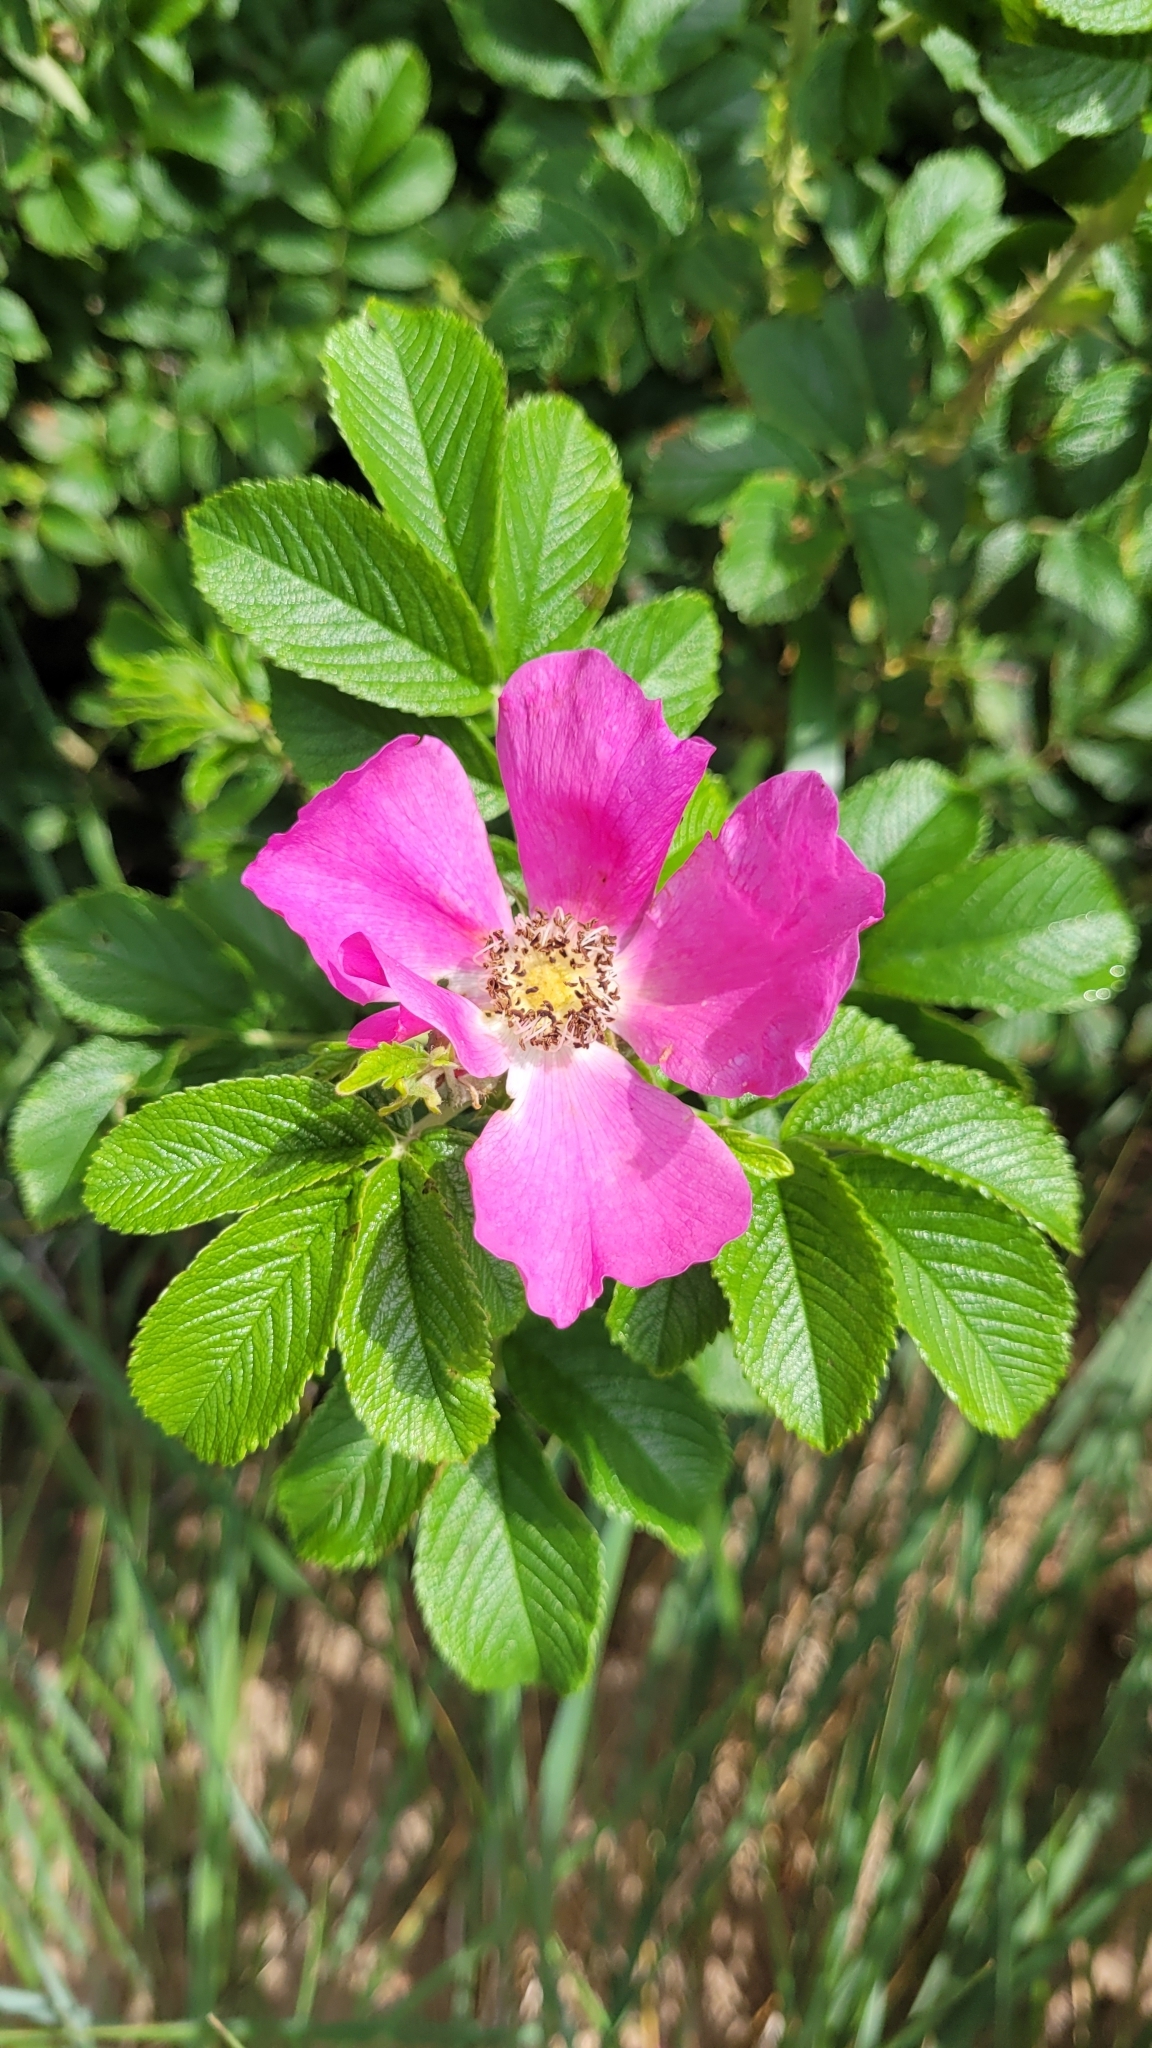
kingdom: Plantae
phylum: Tracheophyta
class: Magnoliopsida
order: Rosales
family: Rosaceae
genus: Rosa
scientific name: Rosa rugosa
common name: Japanese rose
